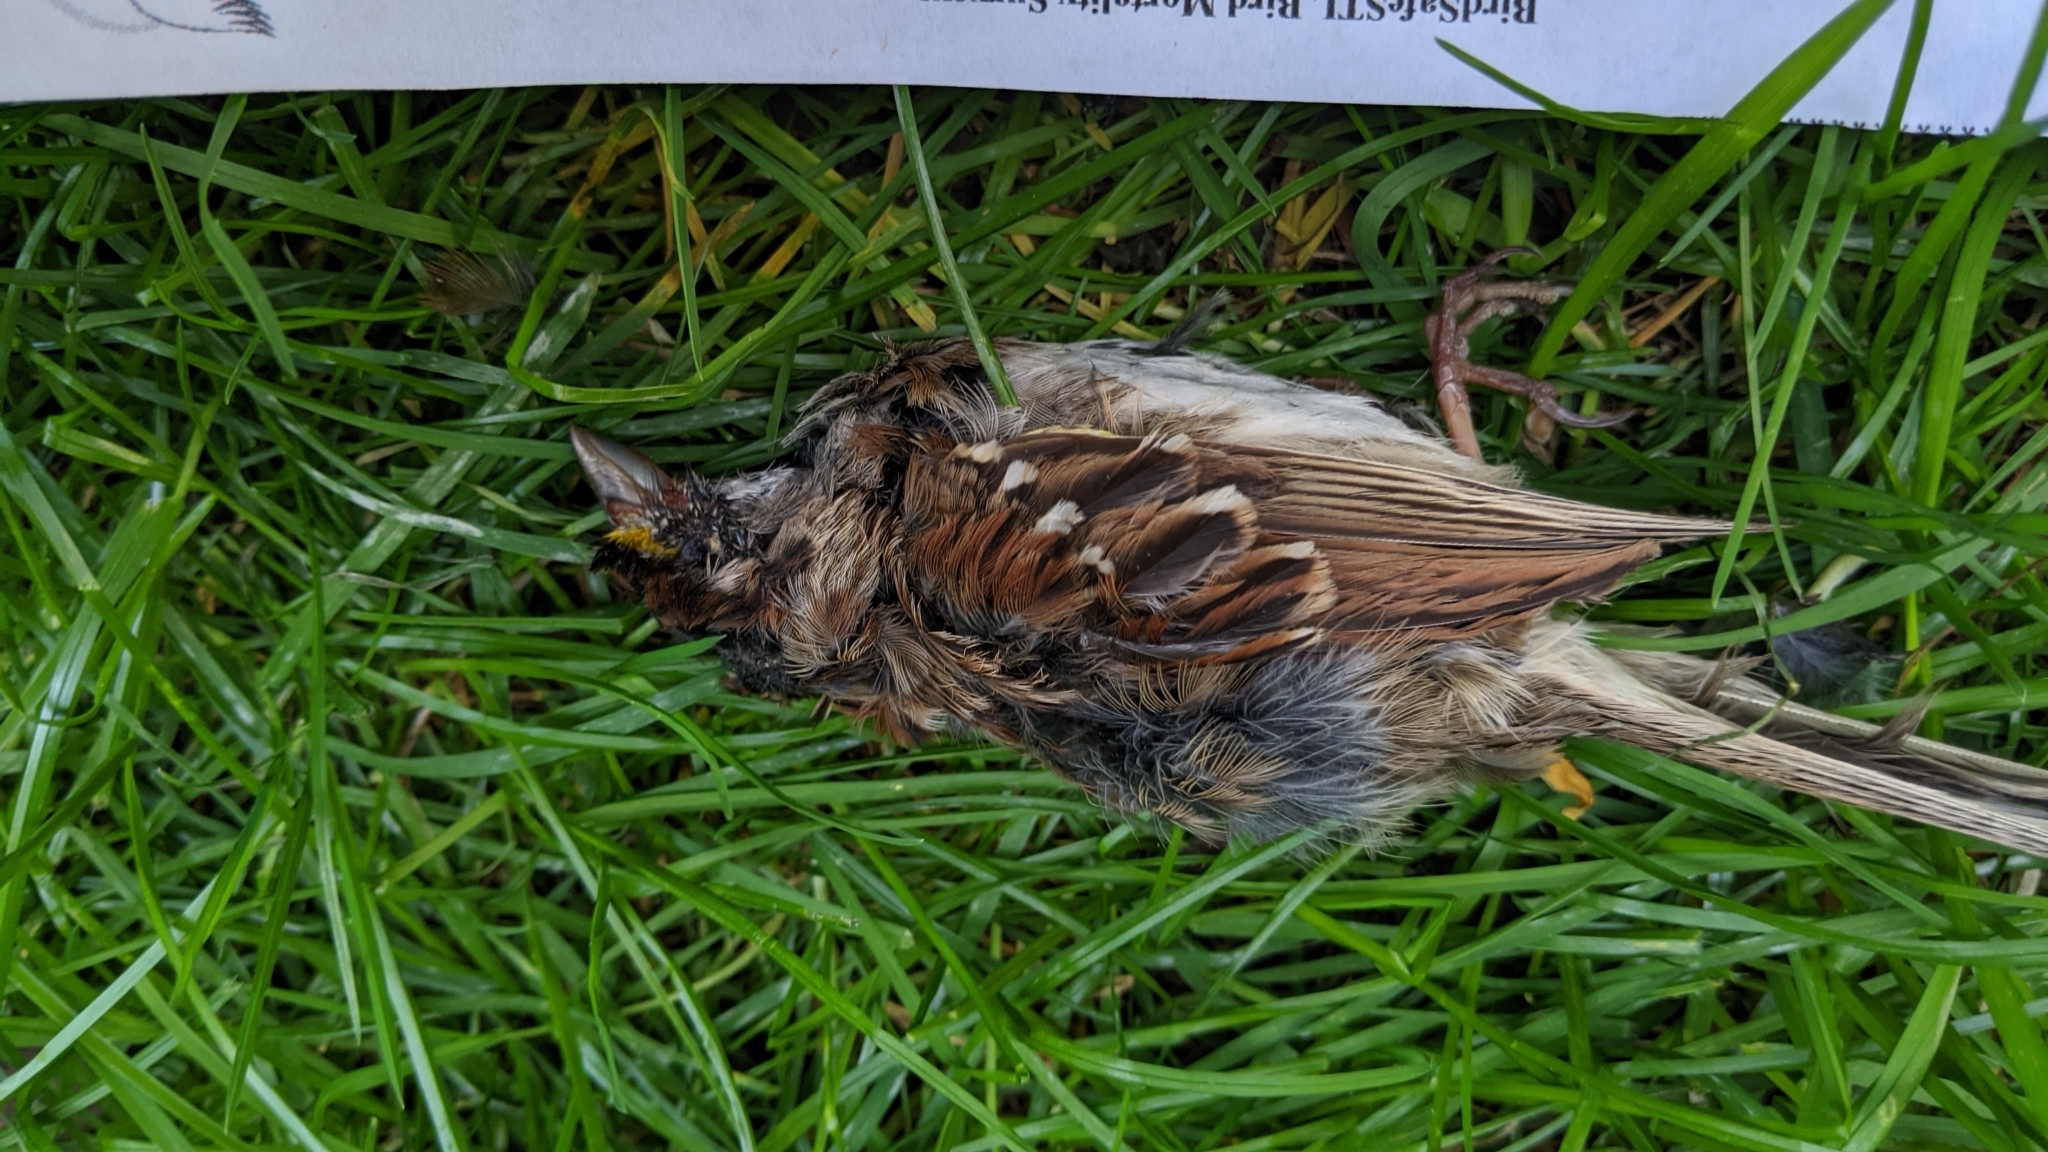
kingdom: Animalia
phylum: Chordata
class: Aves
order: Passeriformes
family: Passerellidae
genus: Zonotrichia
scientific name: Zonotrichia albicollis
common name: White-throated sparrow
